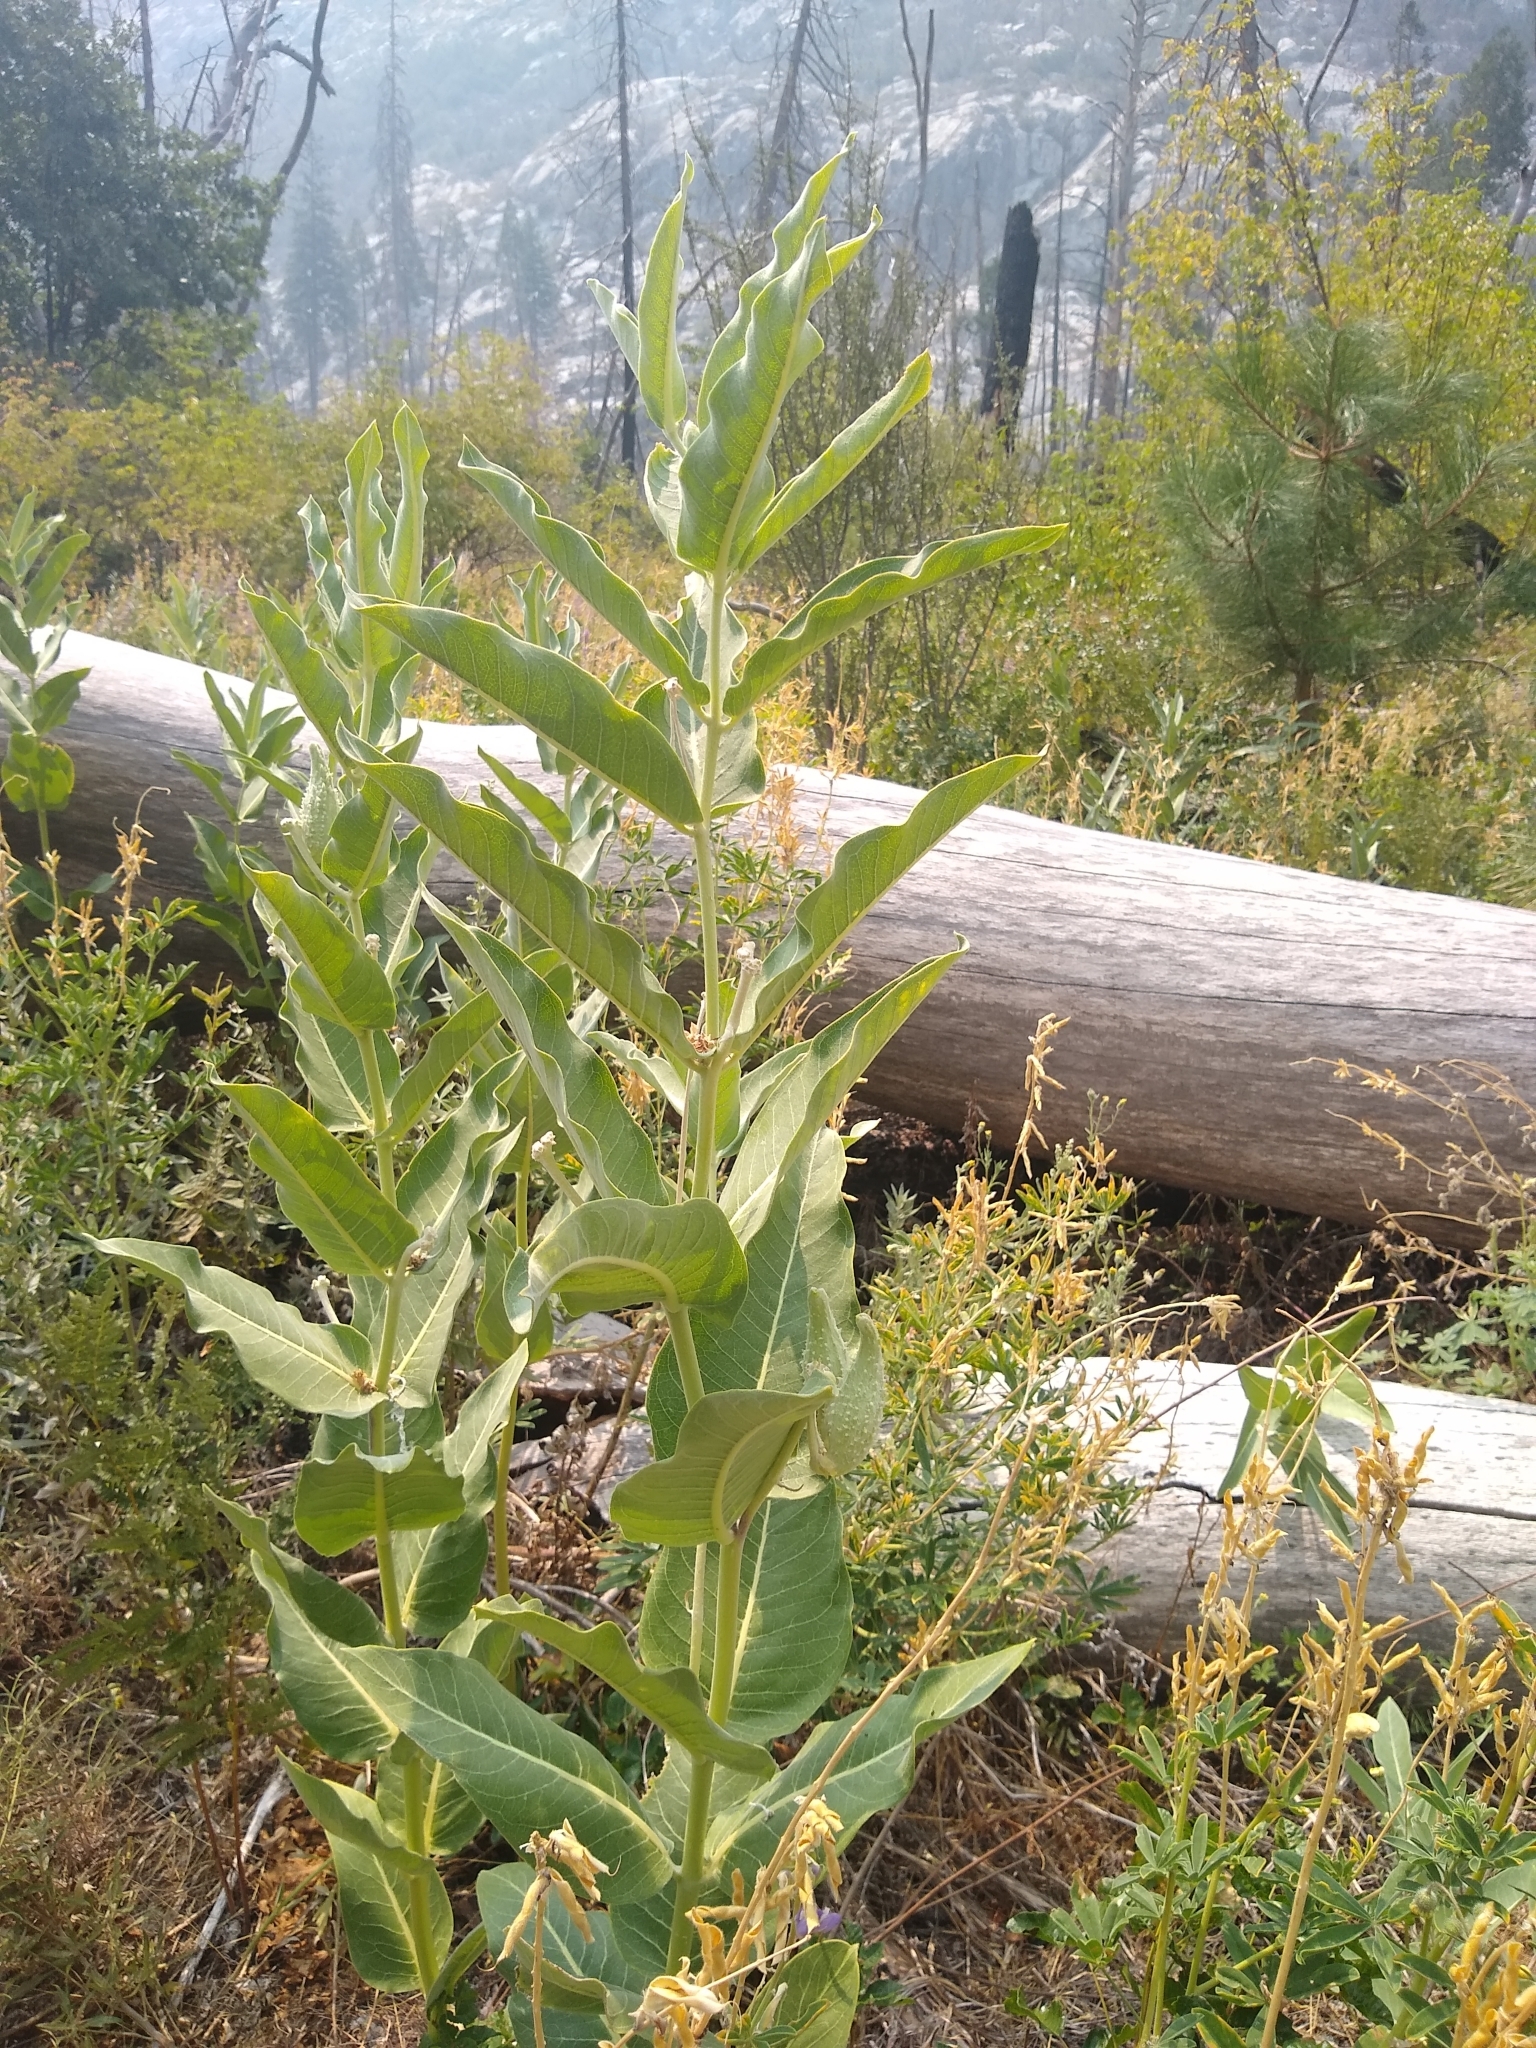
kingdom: Plantae
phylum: Tracheophyta
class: Magnoliopsida
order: Gentianales
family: Apocynaceae
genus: Asclepias
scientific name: Asclepias speciosa
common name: Showy milkweed
